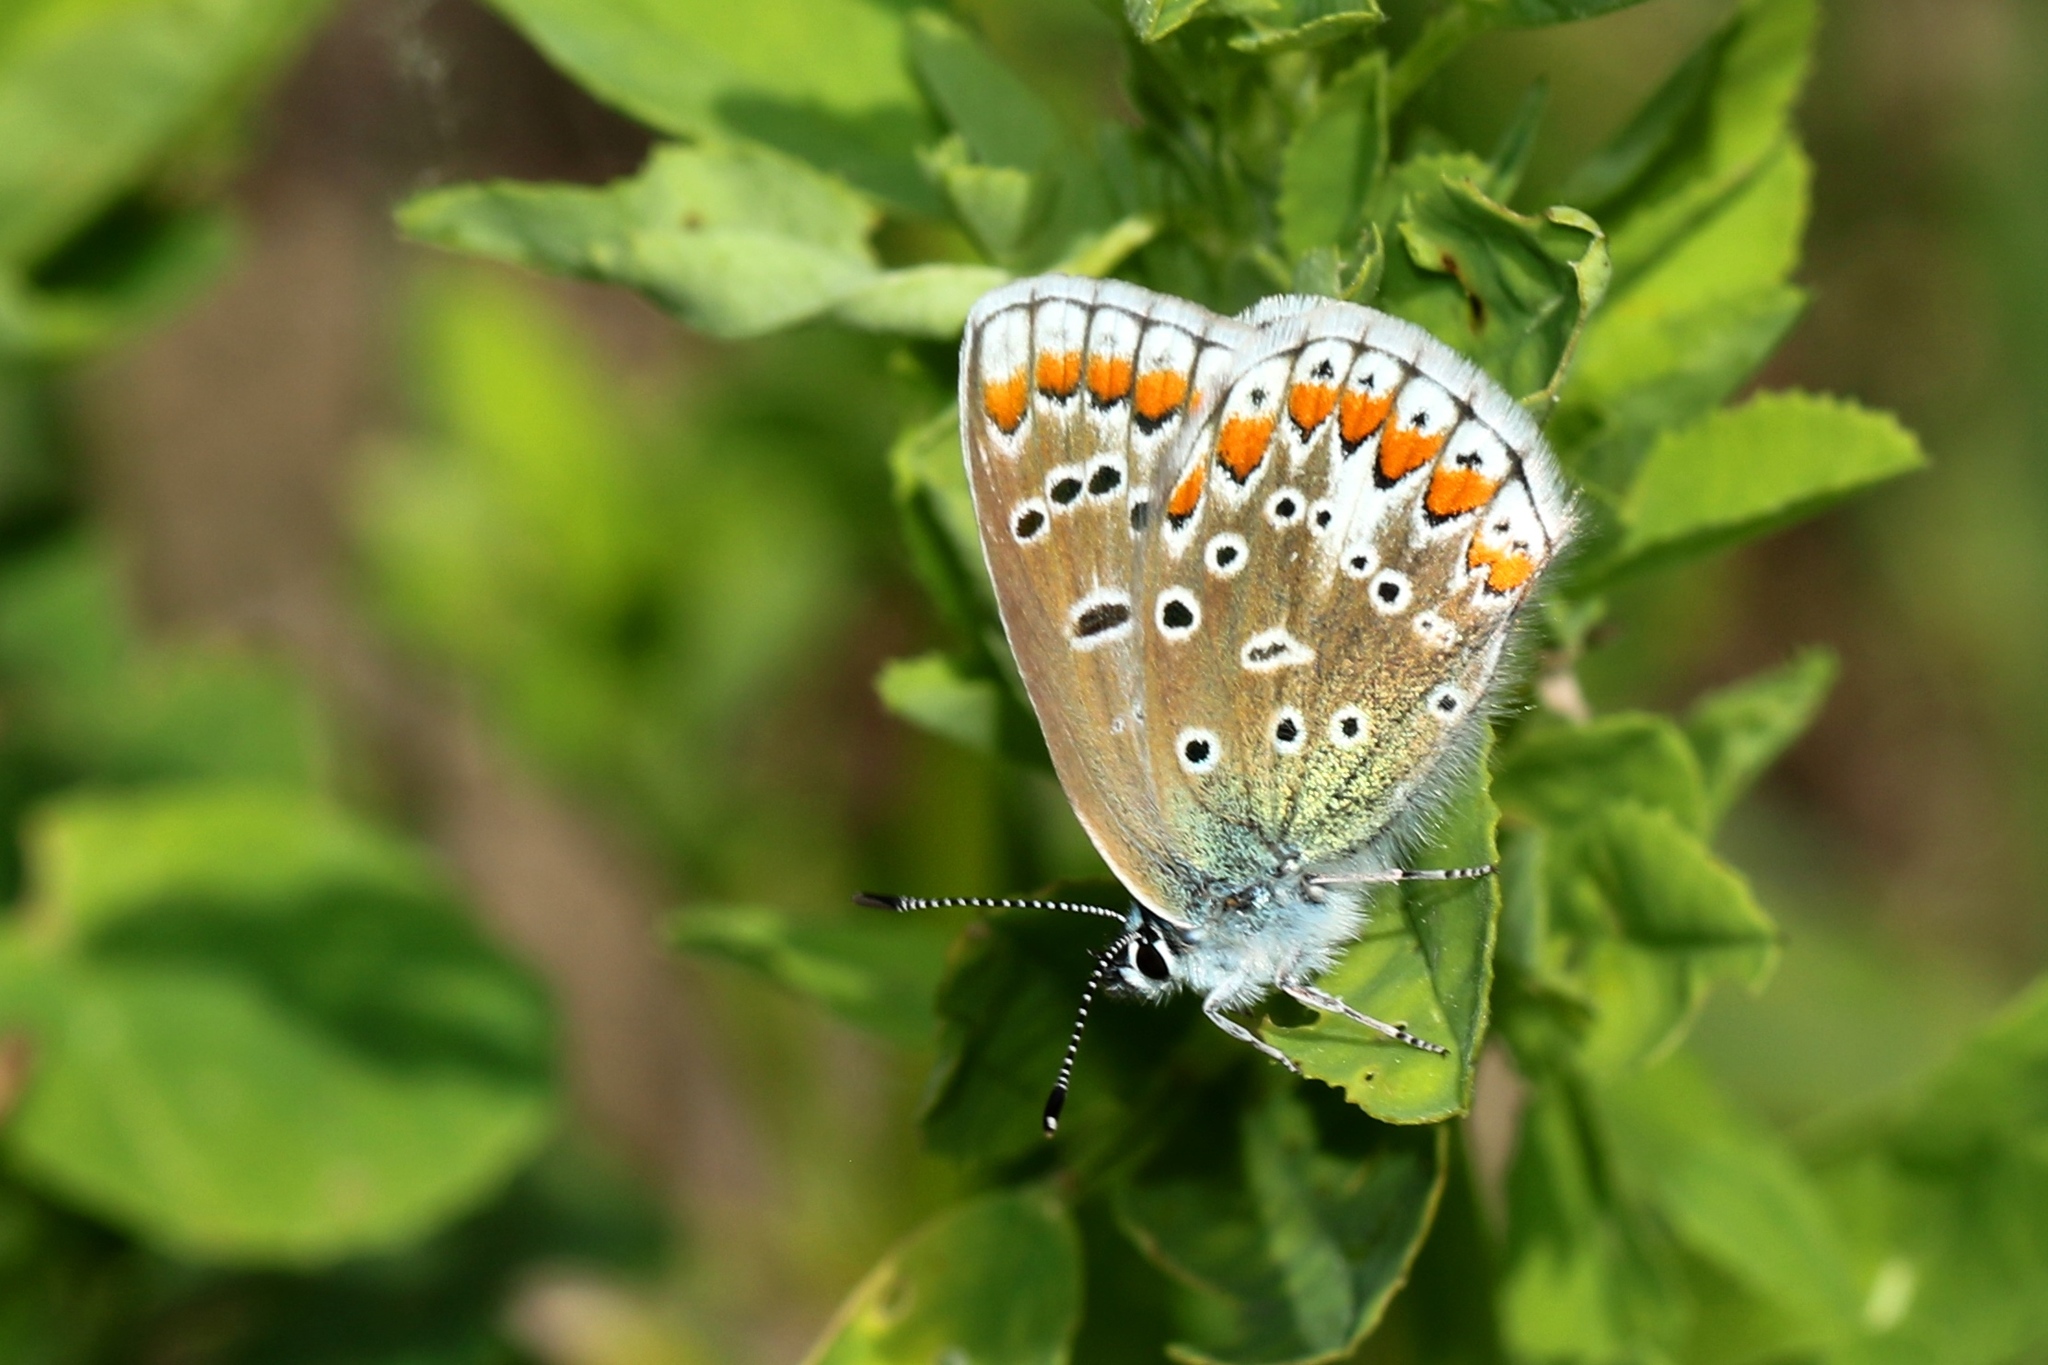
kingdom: Animalia
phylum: Arthropoda
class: Insecta
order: Lepidoptera
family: Lycaenidae
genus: Polyommatus
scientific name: Polyommatus icarus
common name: Common blue
